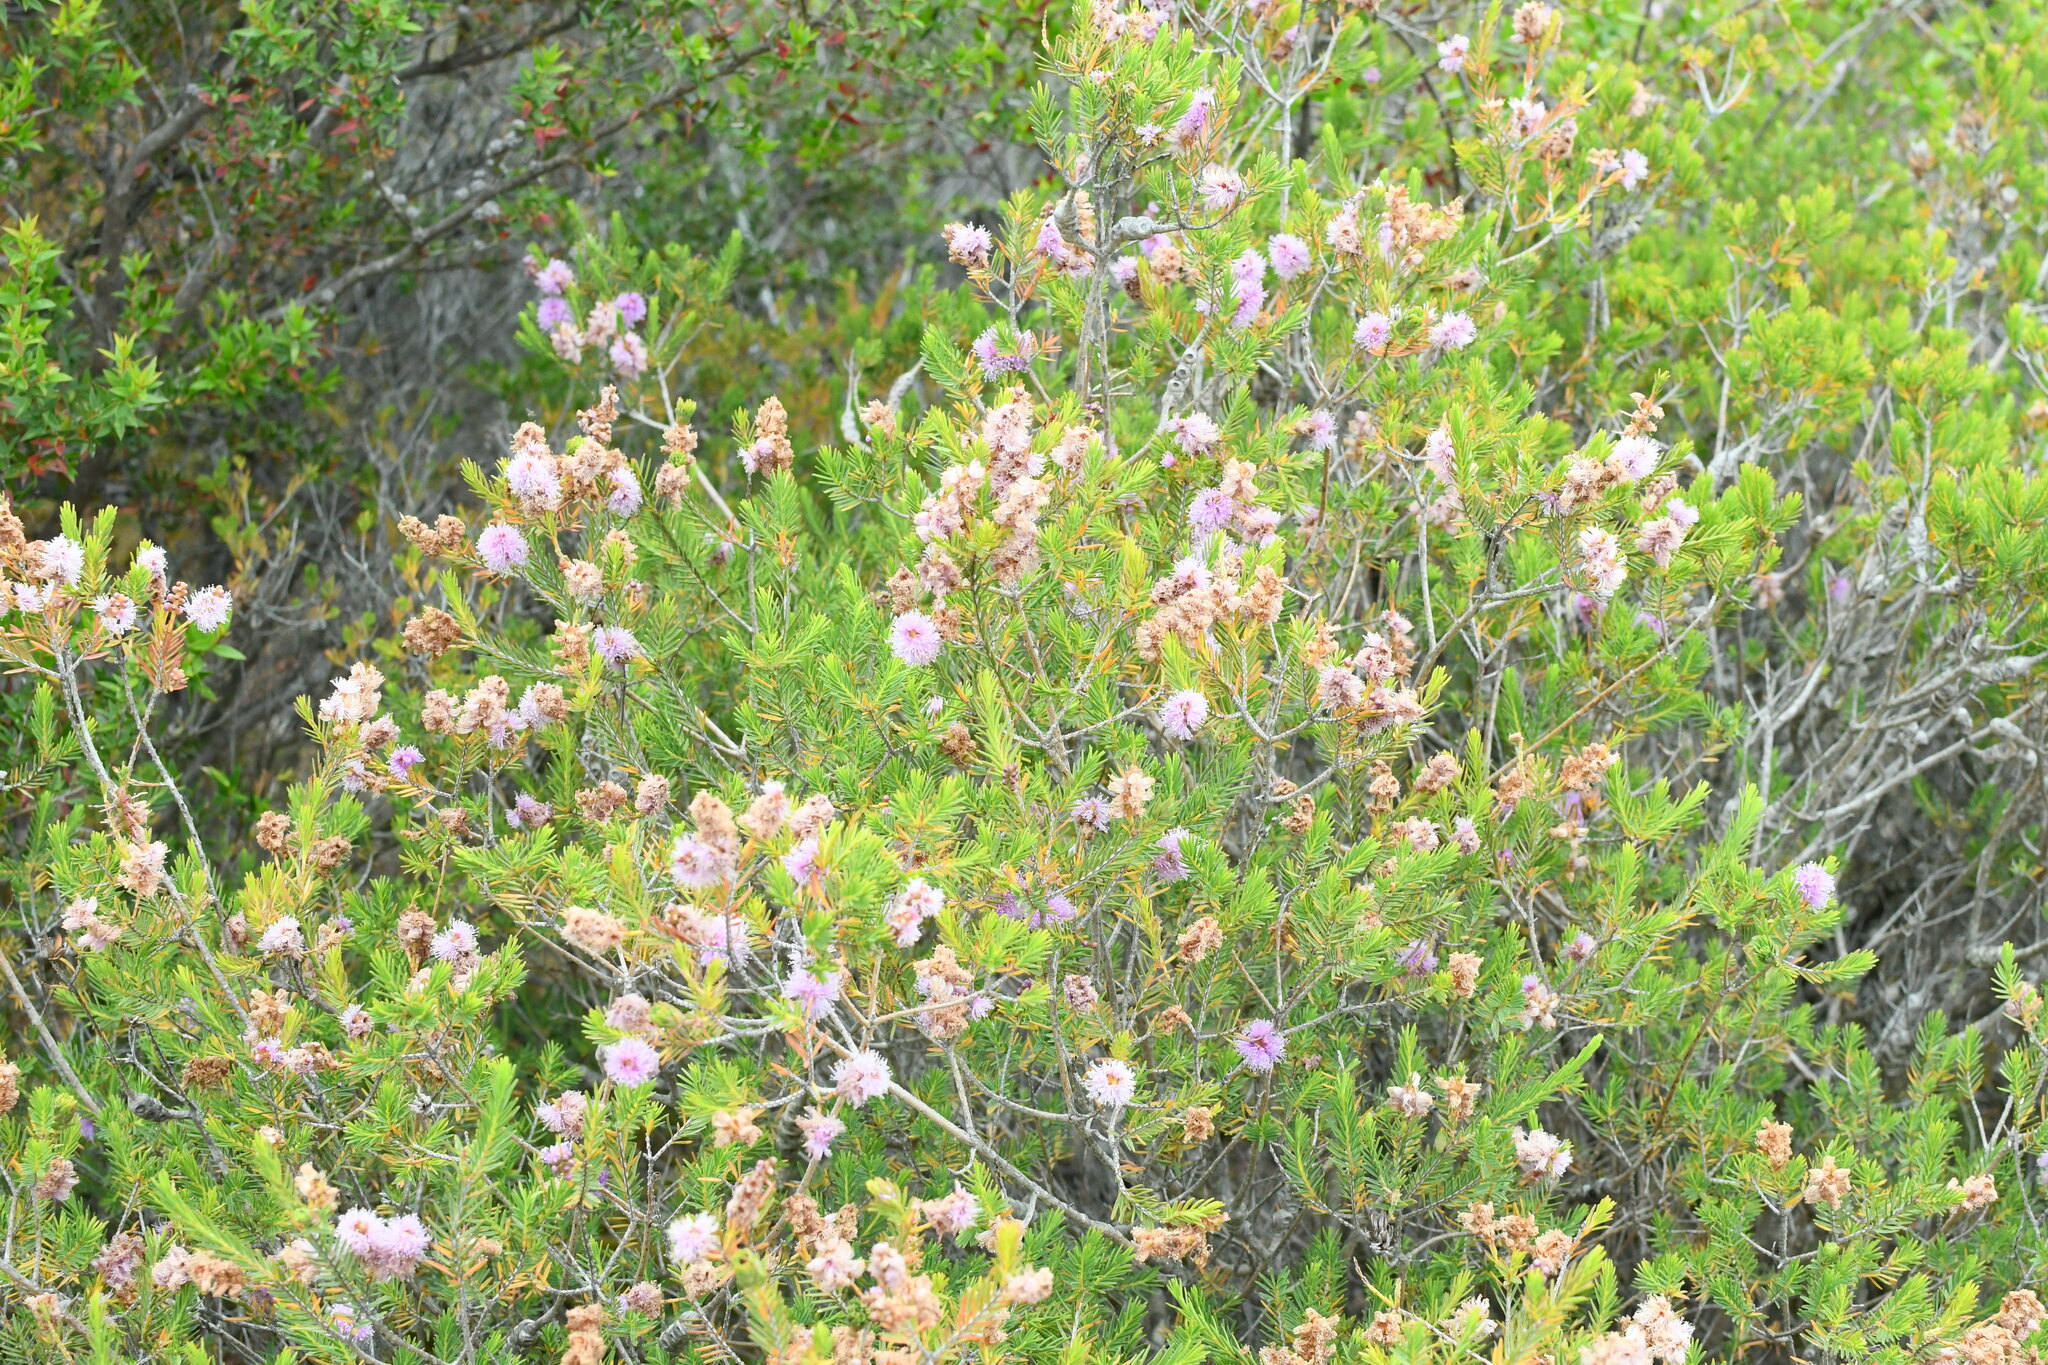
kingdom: Plantae
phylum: Tracheophyta
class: Magnoliopsida
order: Myrtales
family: Myrtaceae
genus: Melaleuca
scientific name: Melaleuca decussata
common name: Cross-leaf honey myrtle
